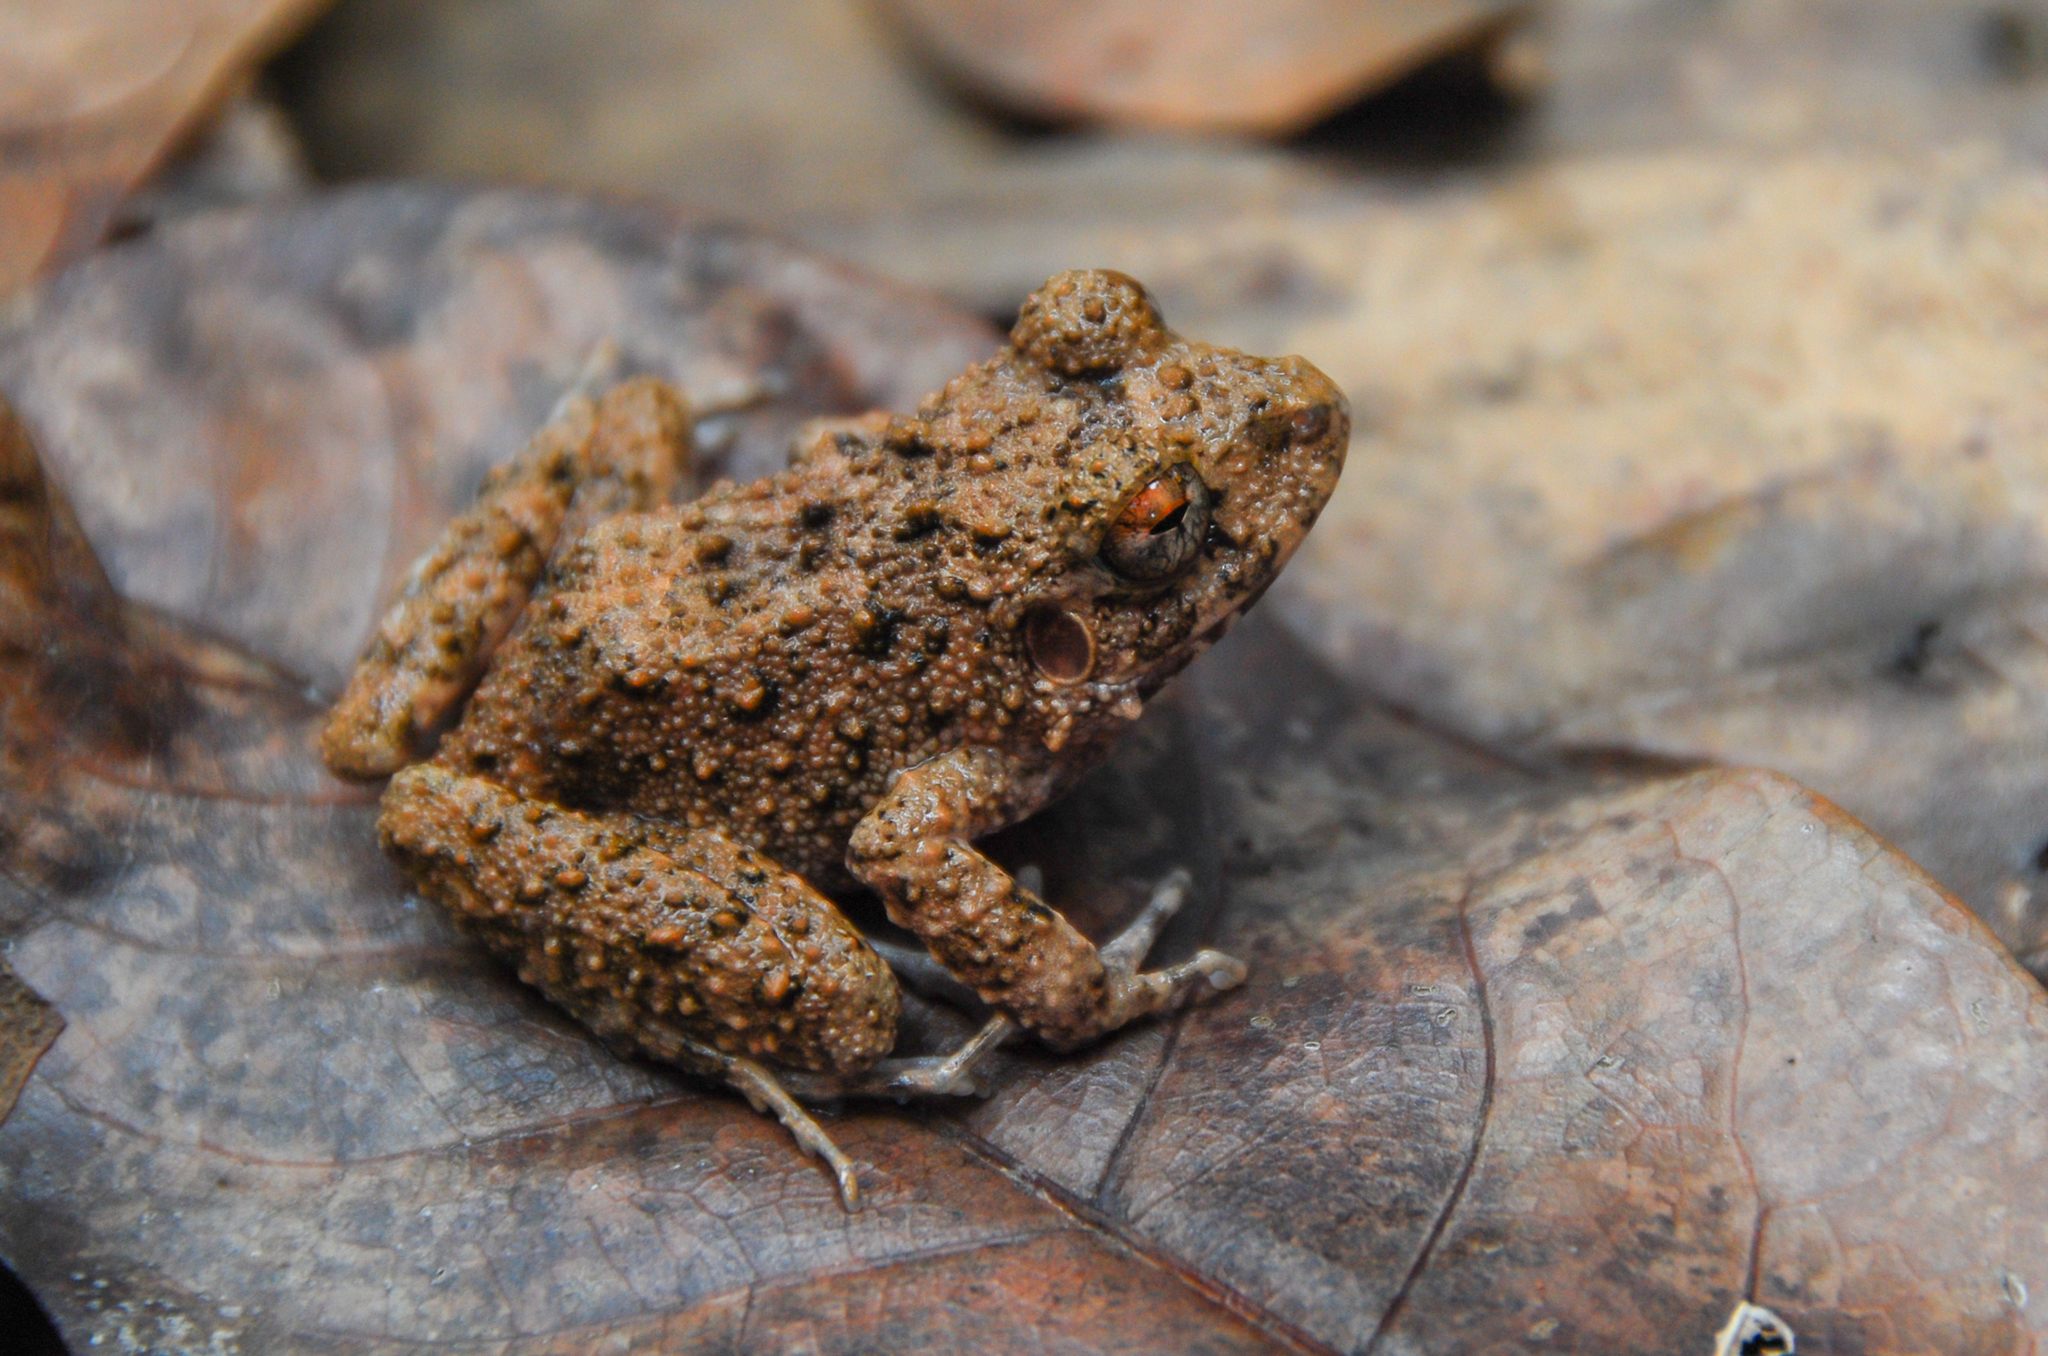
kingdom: Animalia
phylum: Chordata
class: Amphibia
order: Anura
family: Craugastoridae
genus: Oreobates
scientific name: Oreobates quixensis
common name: Common big-headed frog
